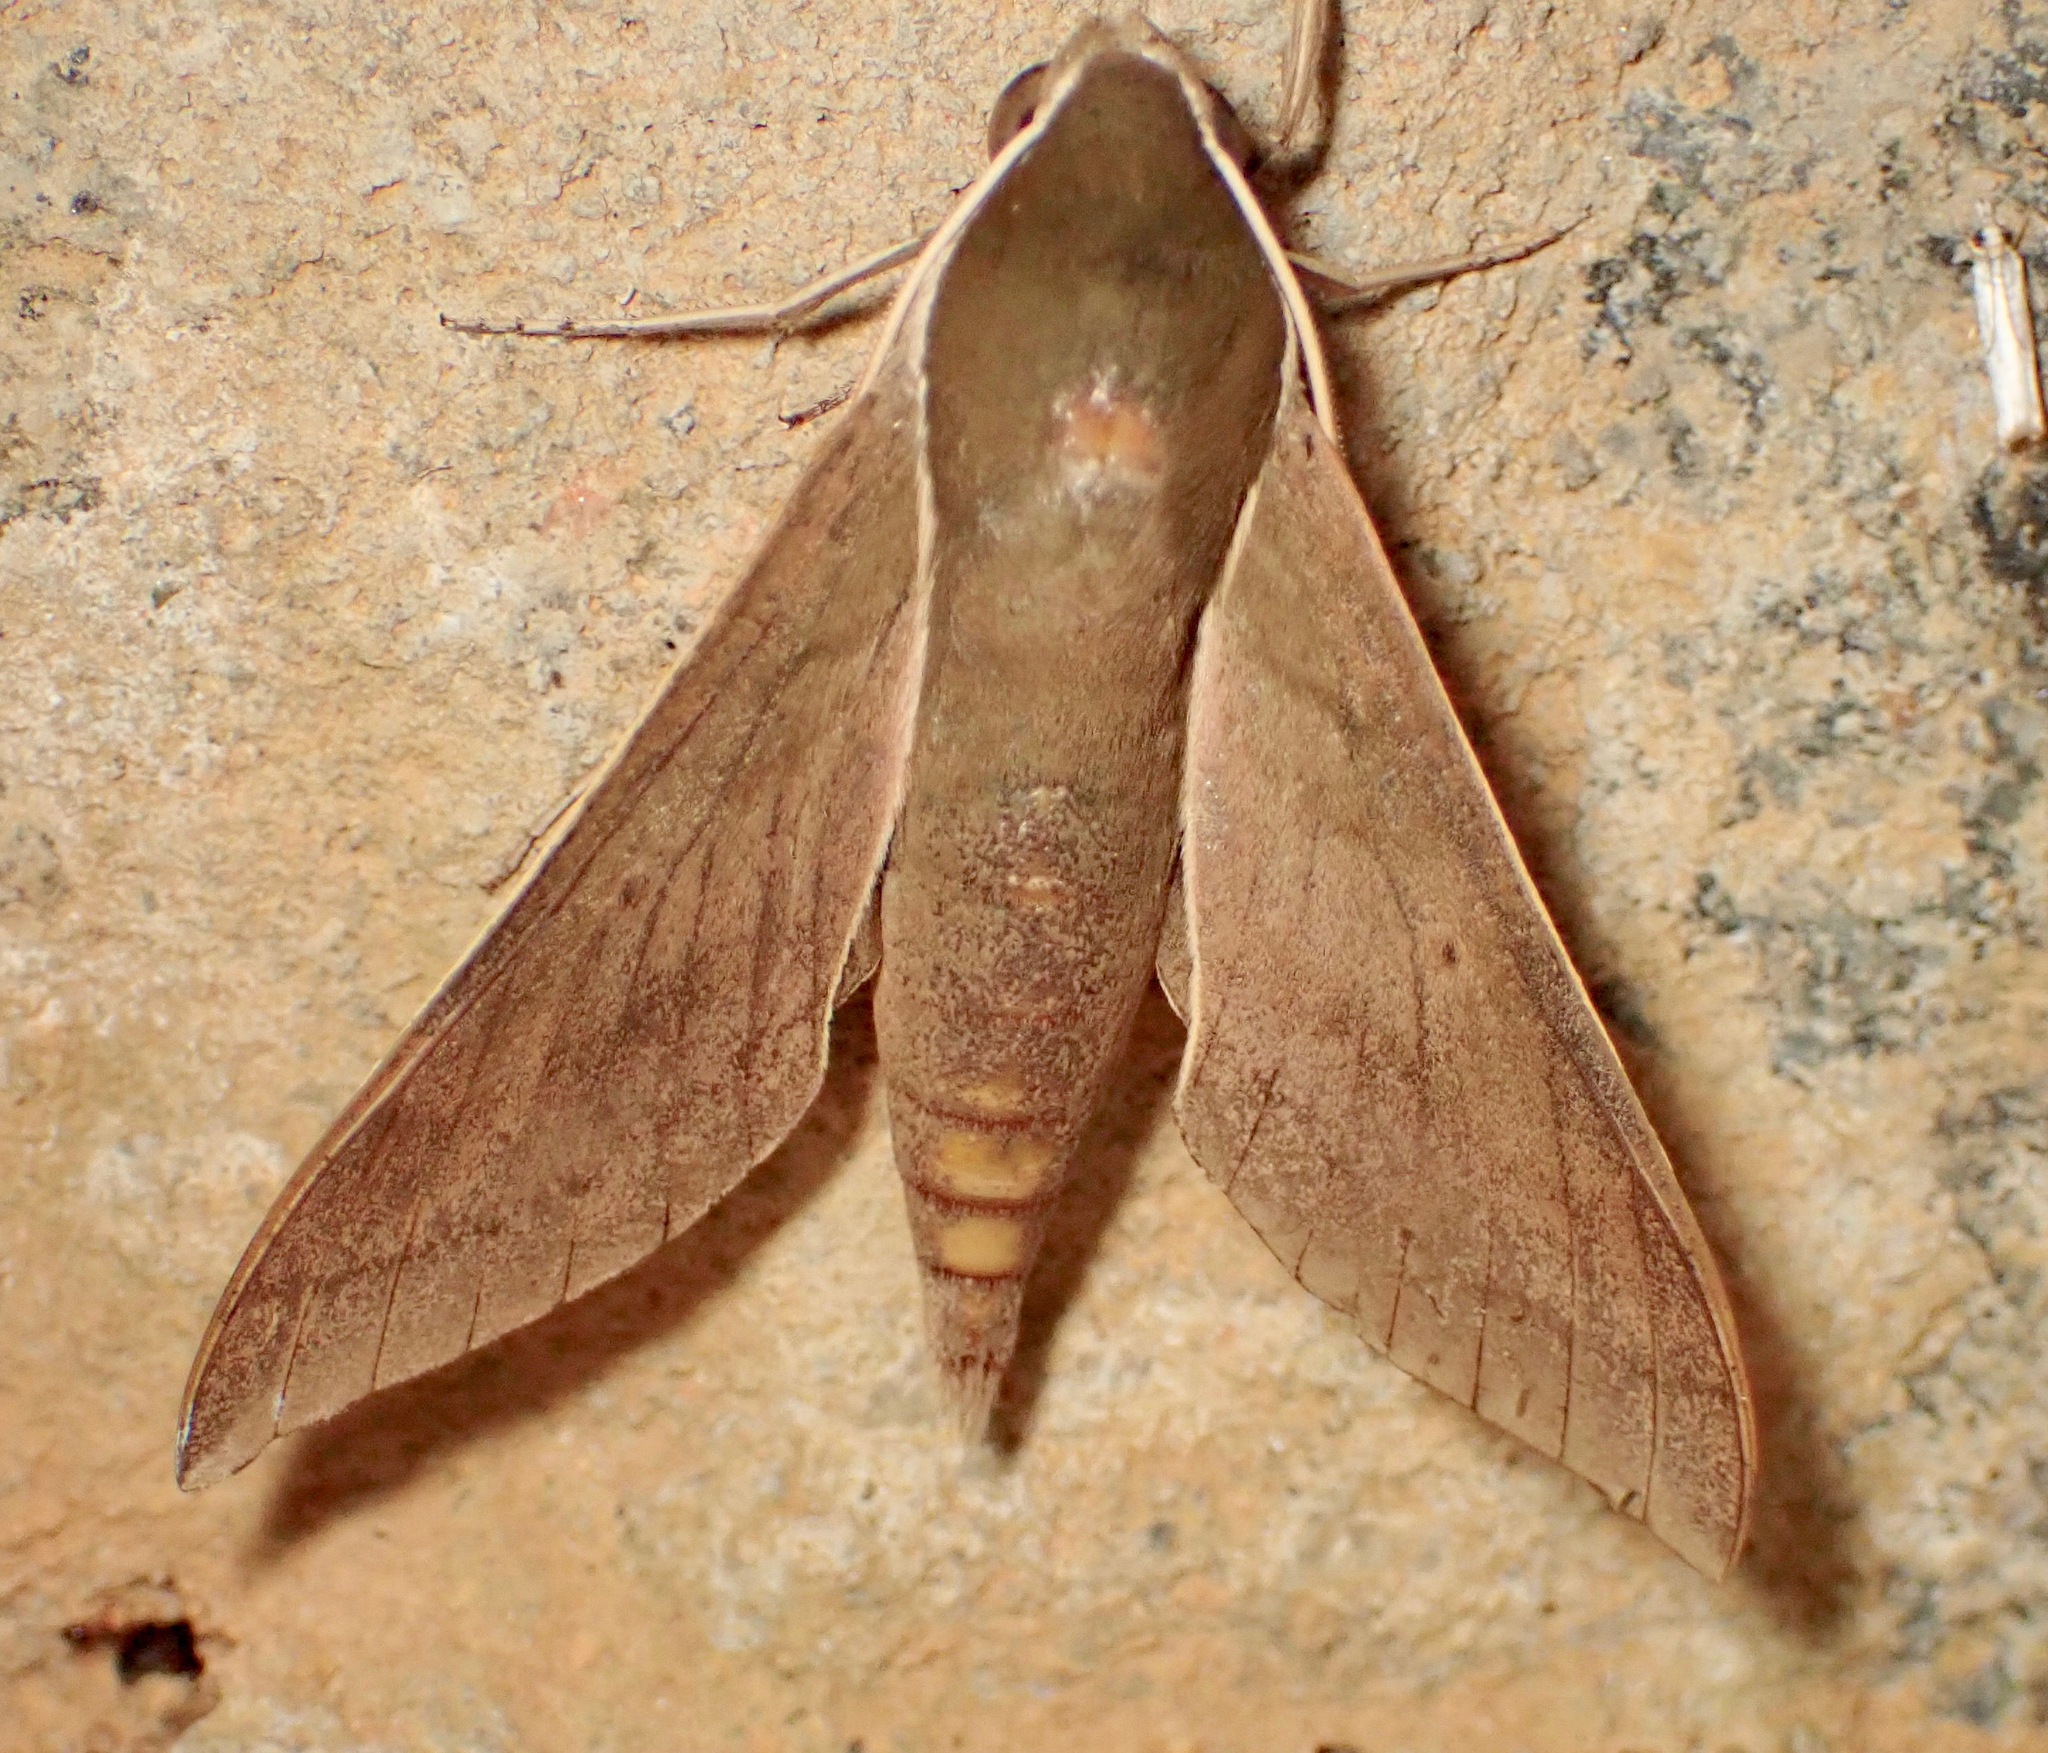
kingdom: Animalia
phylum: Arthropoda
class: Insecta
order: Lepidoptera
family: Sphingidae
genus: Xylophanes
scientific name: Xylophanes porcus
